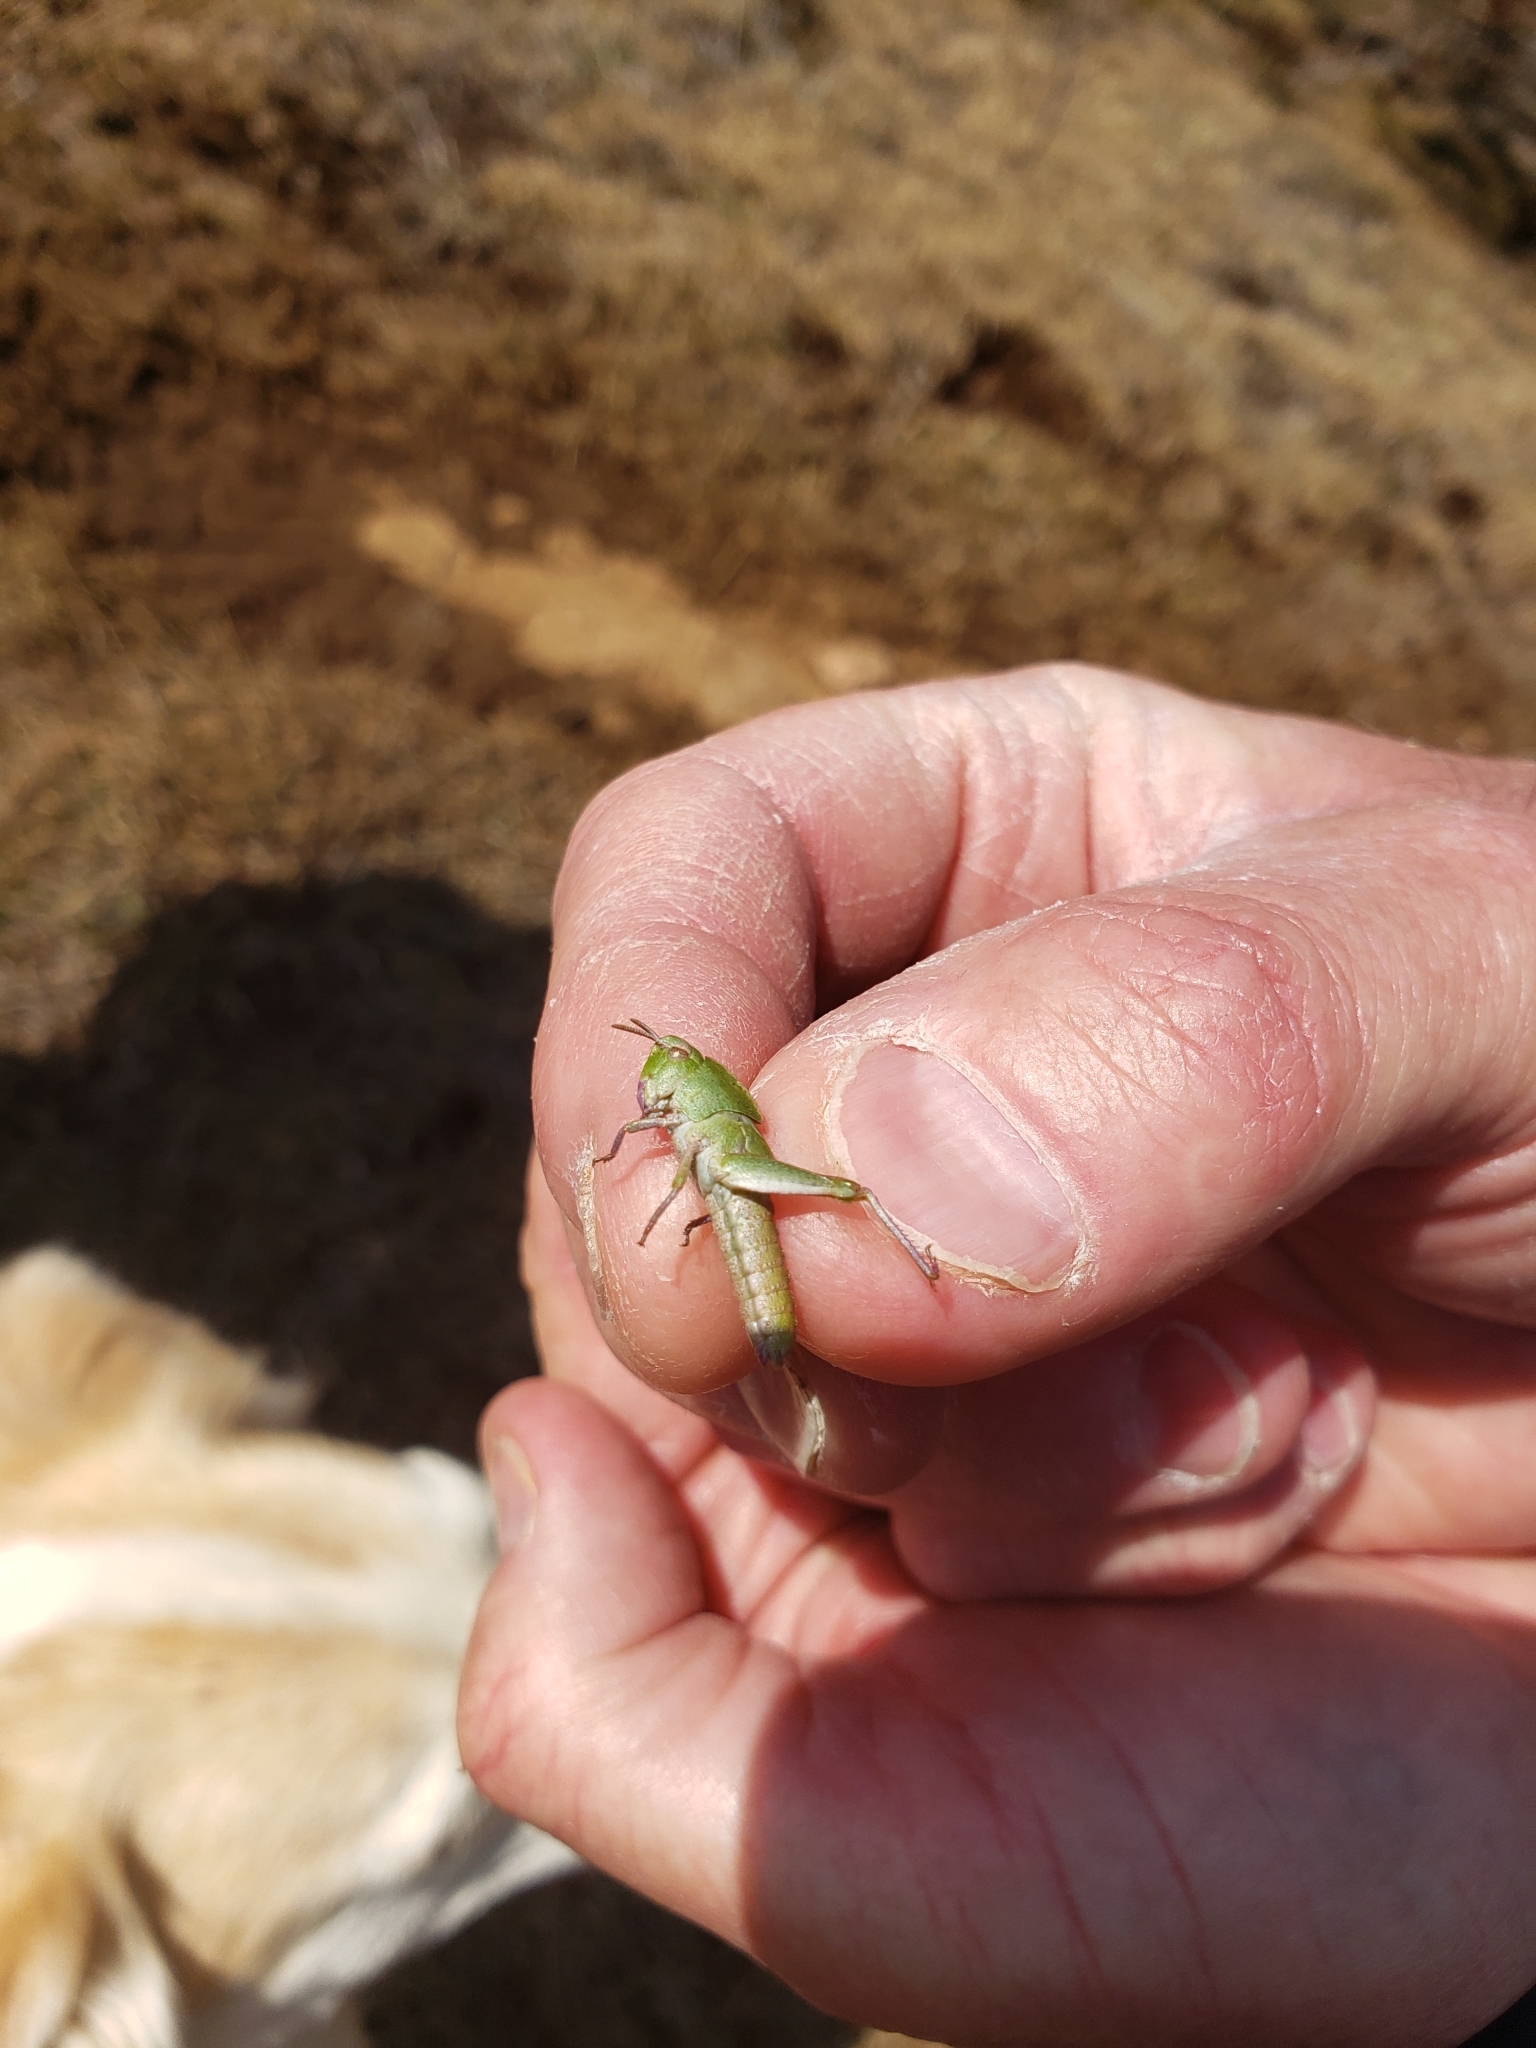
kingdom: Animalia
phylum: Arthropoda
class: Insecta
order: Orthoptera
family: Acrididae
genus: Chortophaga
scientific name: Chortophaga viridifasciata
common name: Green-striped grasshopper
